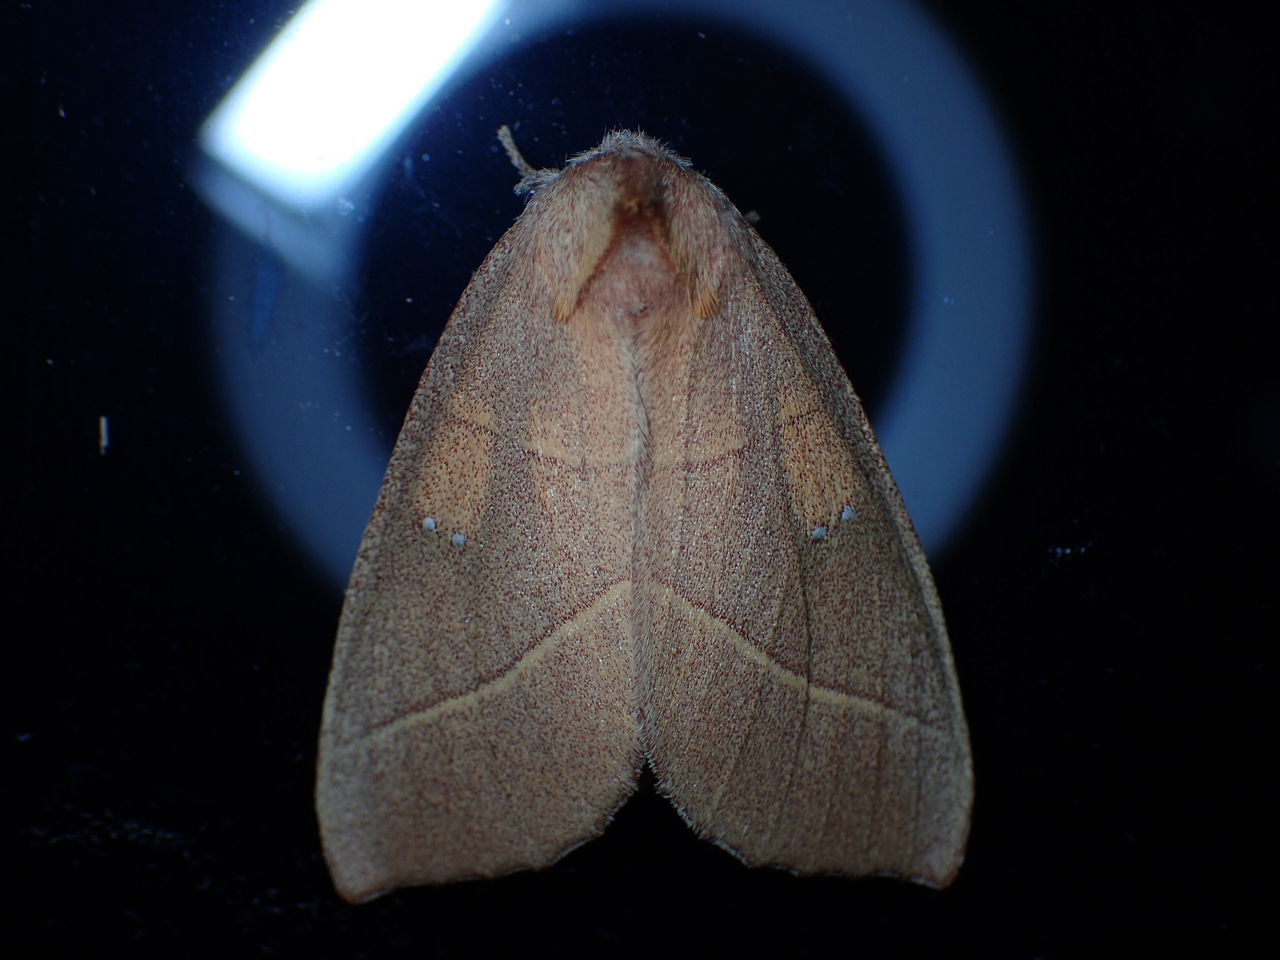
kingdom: Animalia
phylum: Arthropoda
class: Insecta
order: Lepidoptera
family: Notodontidae
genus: Nadata
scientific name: Nadata gibbosa
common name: White-dotted prominent
